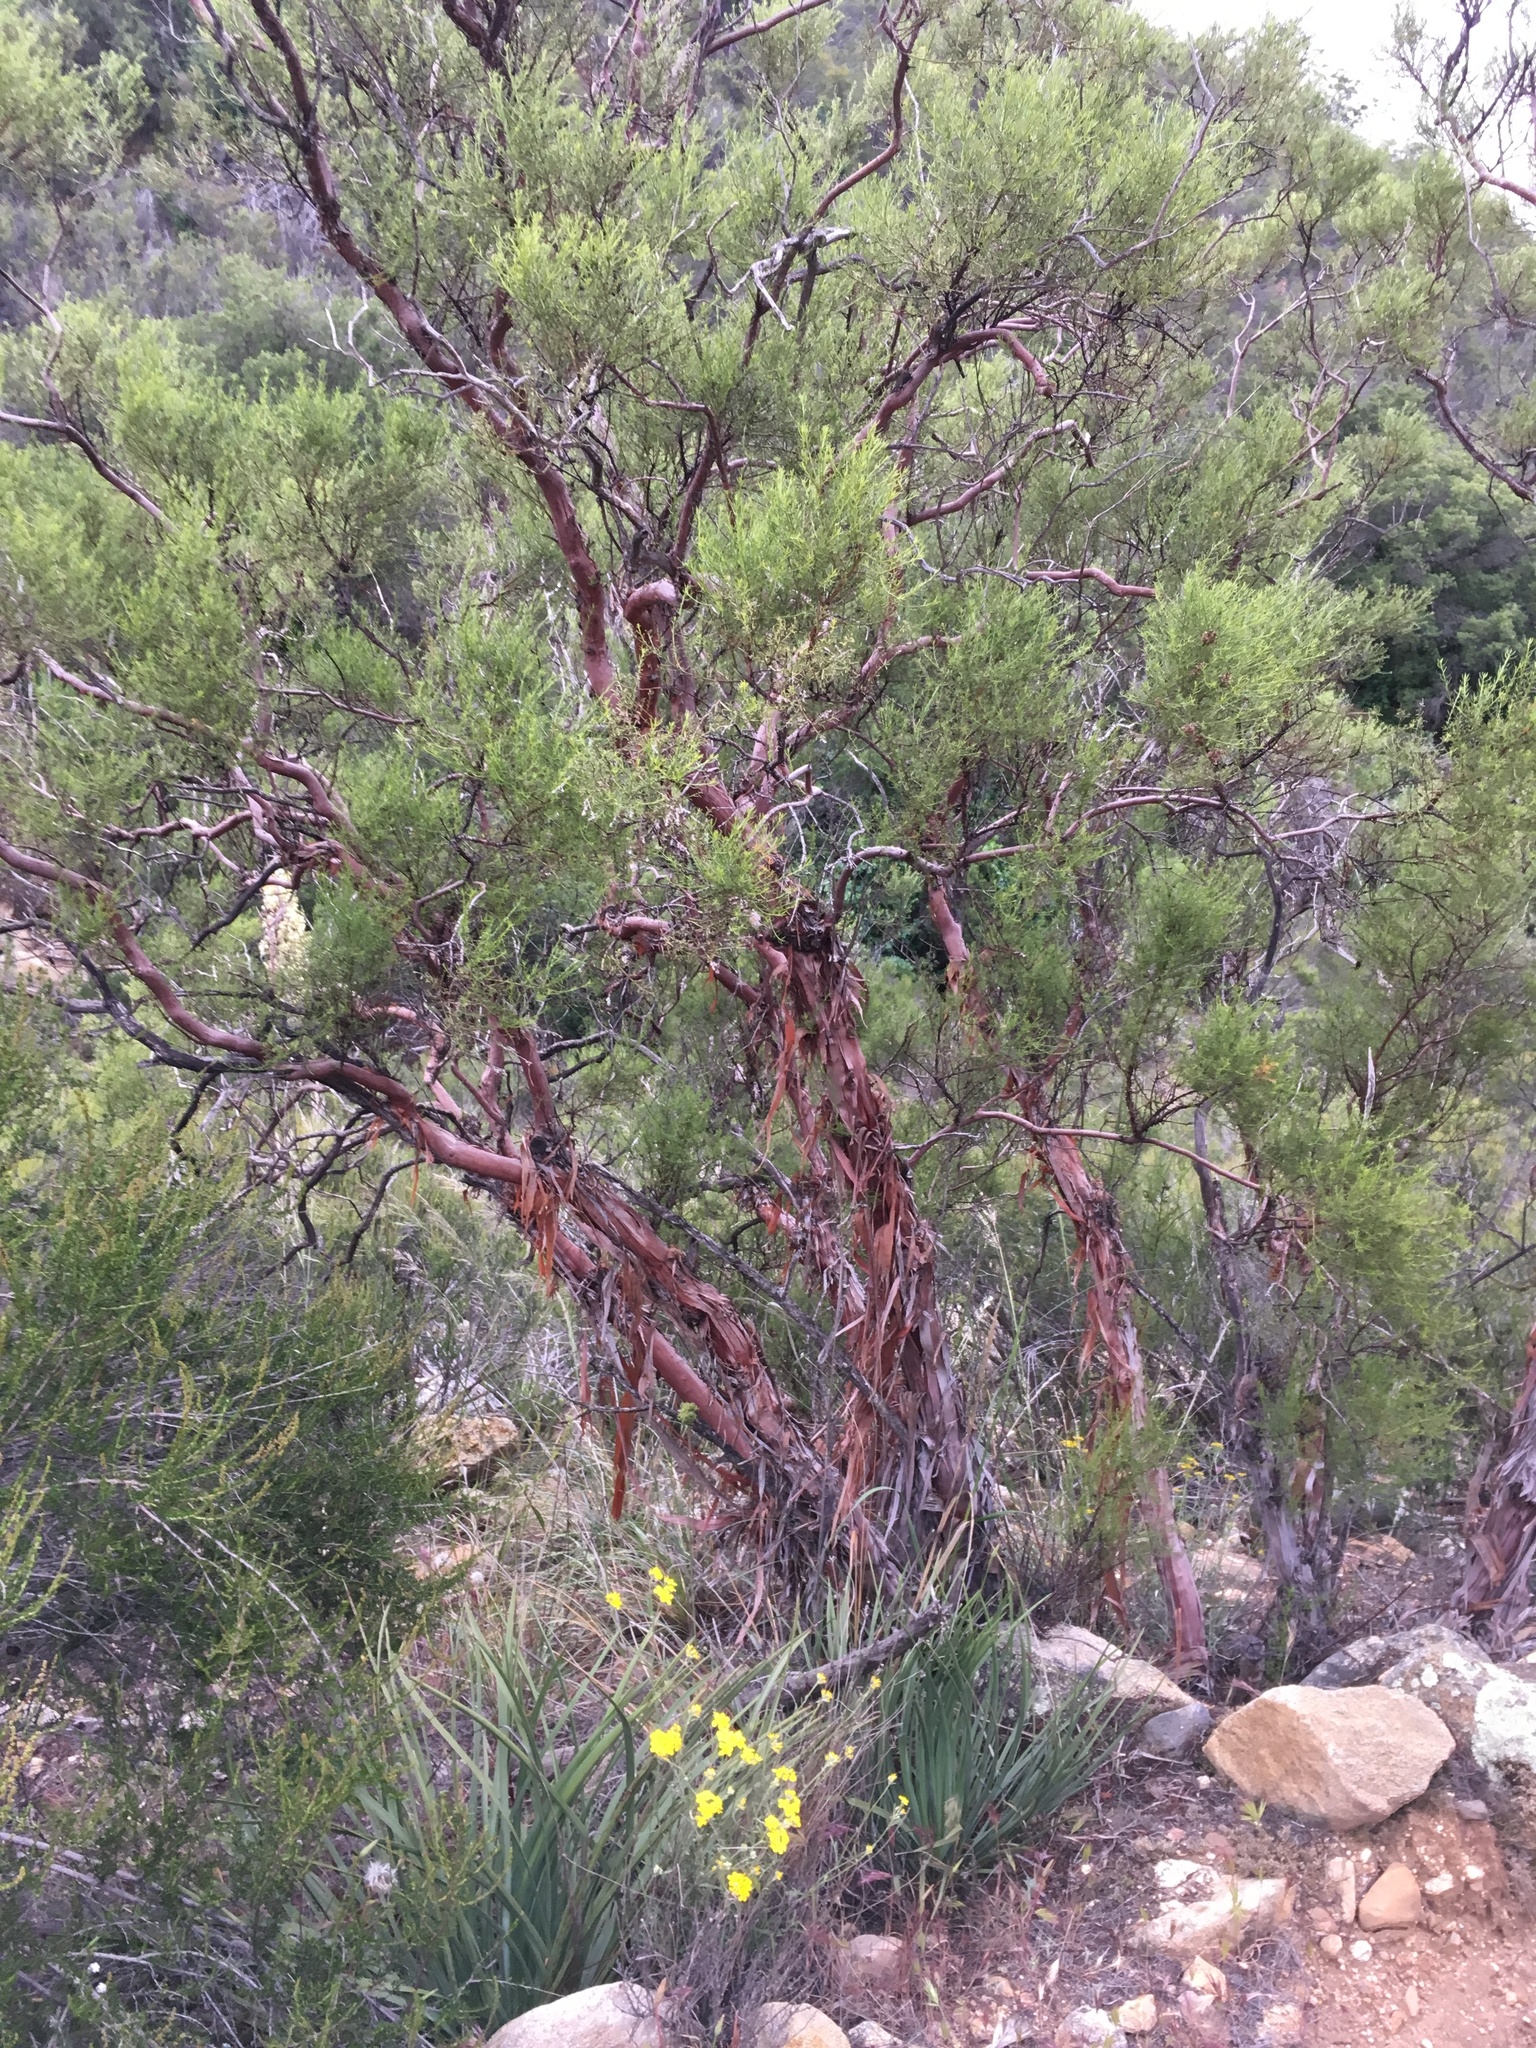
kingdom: Plantae
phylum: Tracheophyta
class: Magnoliopsida
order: Rosales
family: Rosaceae
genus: Adenostoma
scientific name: Adenostoma sparsifolium
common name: Red shank
